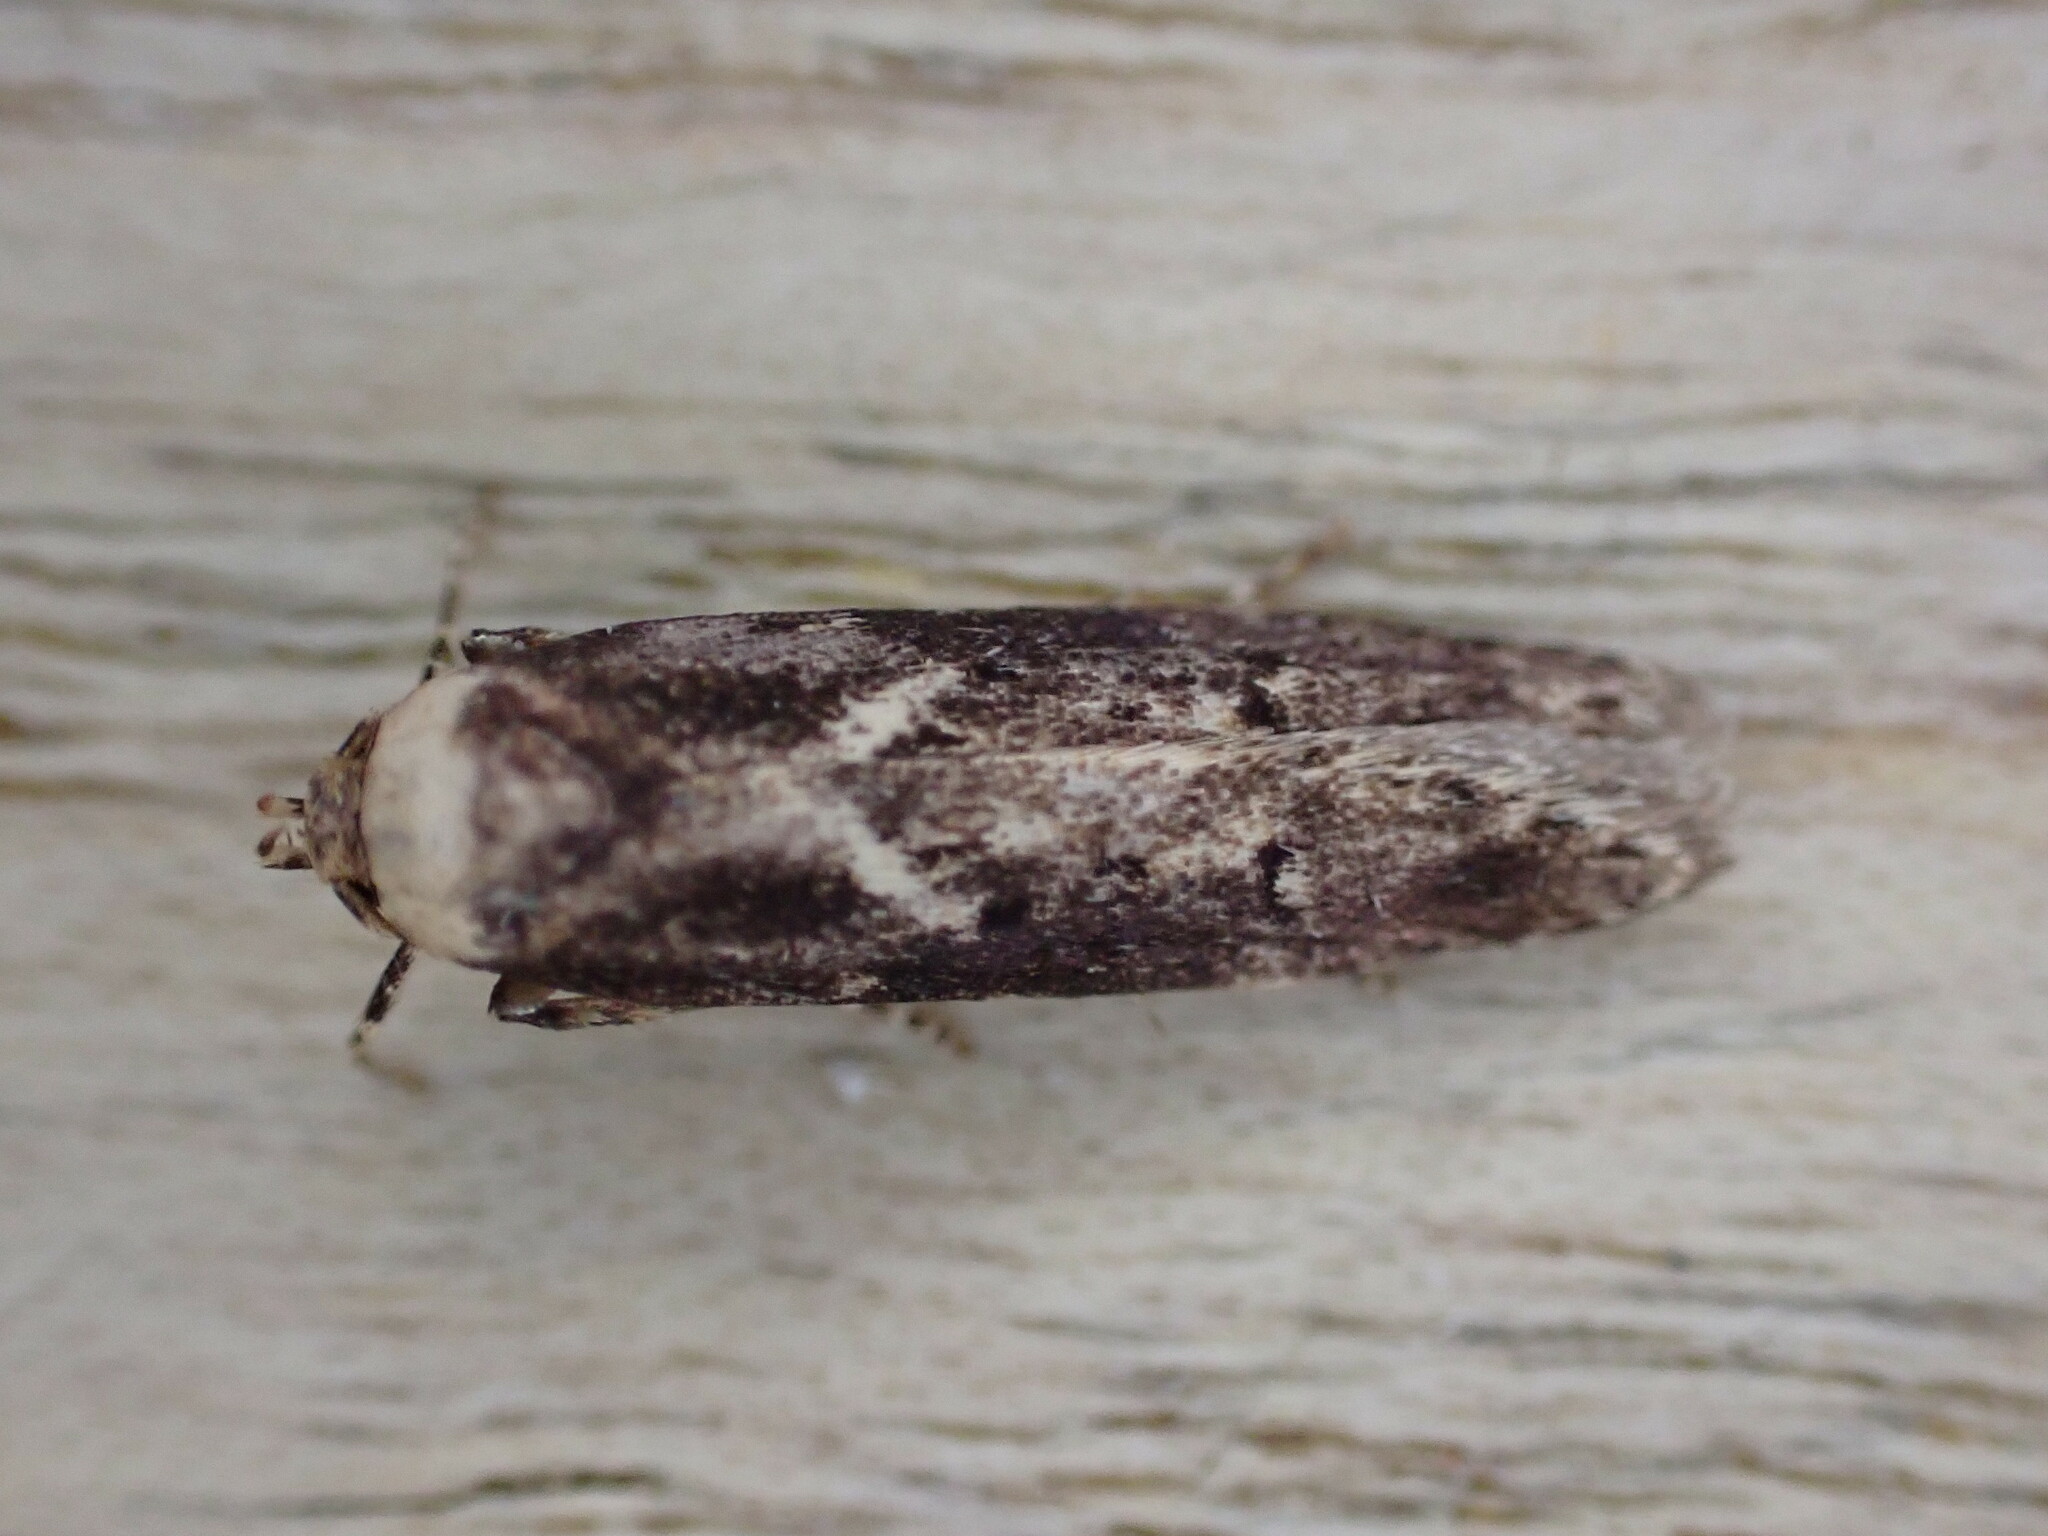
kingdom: Animalia
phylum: Arthropoda
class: Insecta
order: Lepidoptera
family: Blastobasidae
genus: Blastobasis
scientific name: Blastobasis adustella
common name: Dingy dowd
